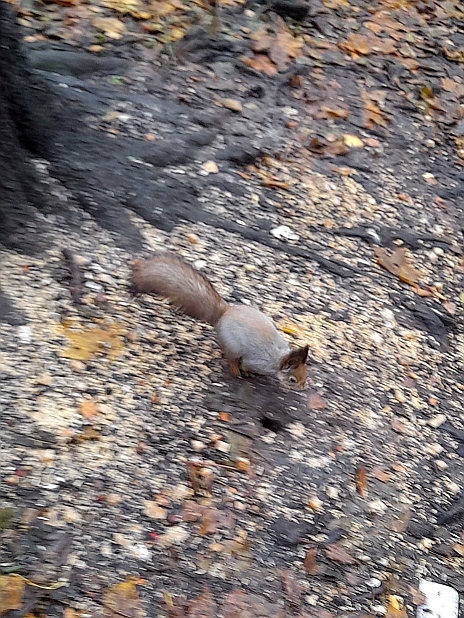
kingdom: Animalia
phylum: Chordata
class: Mammalia
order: Rodentia
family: Sciuridae
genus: Sciurus
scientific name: Sciurus vulgaris
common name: Eurasian red squirrel
